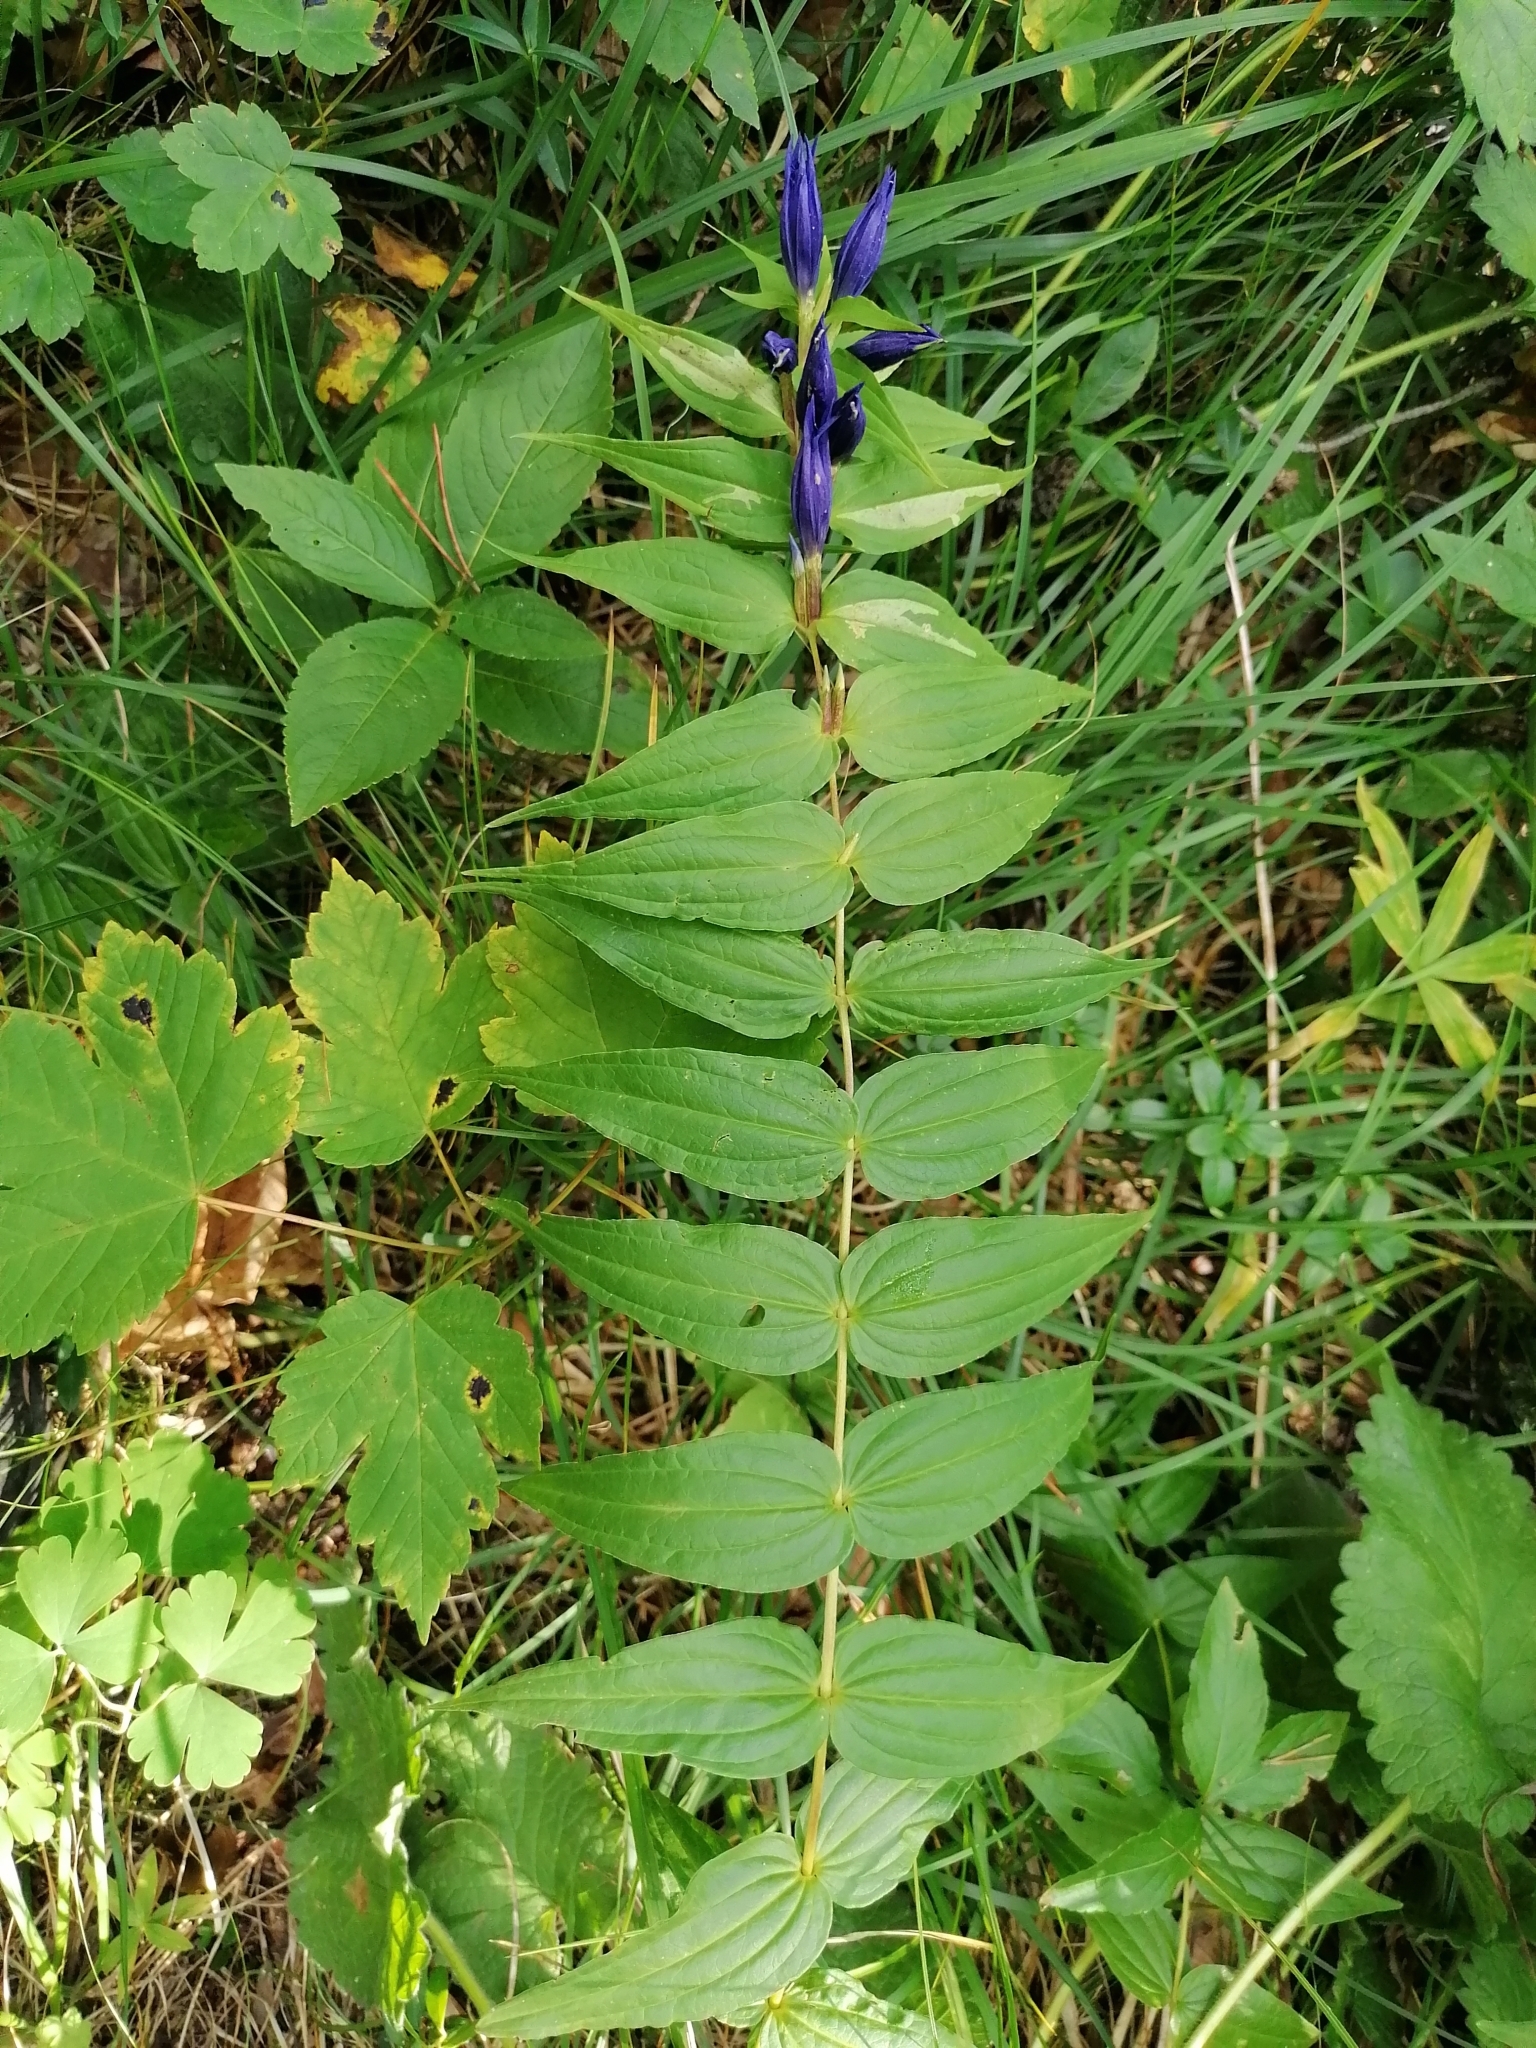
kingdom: Plantae
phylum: Tracheophyta
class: Magnoliopsida
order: Gentianales
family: Gentianaceae
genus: Gentiana
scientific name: Gentiana asclepiadea
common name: Willow gentian
